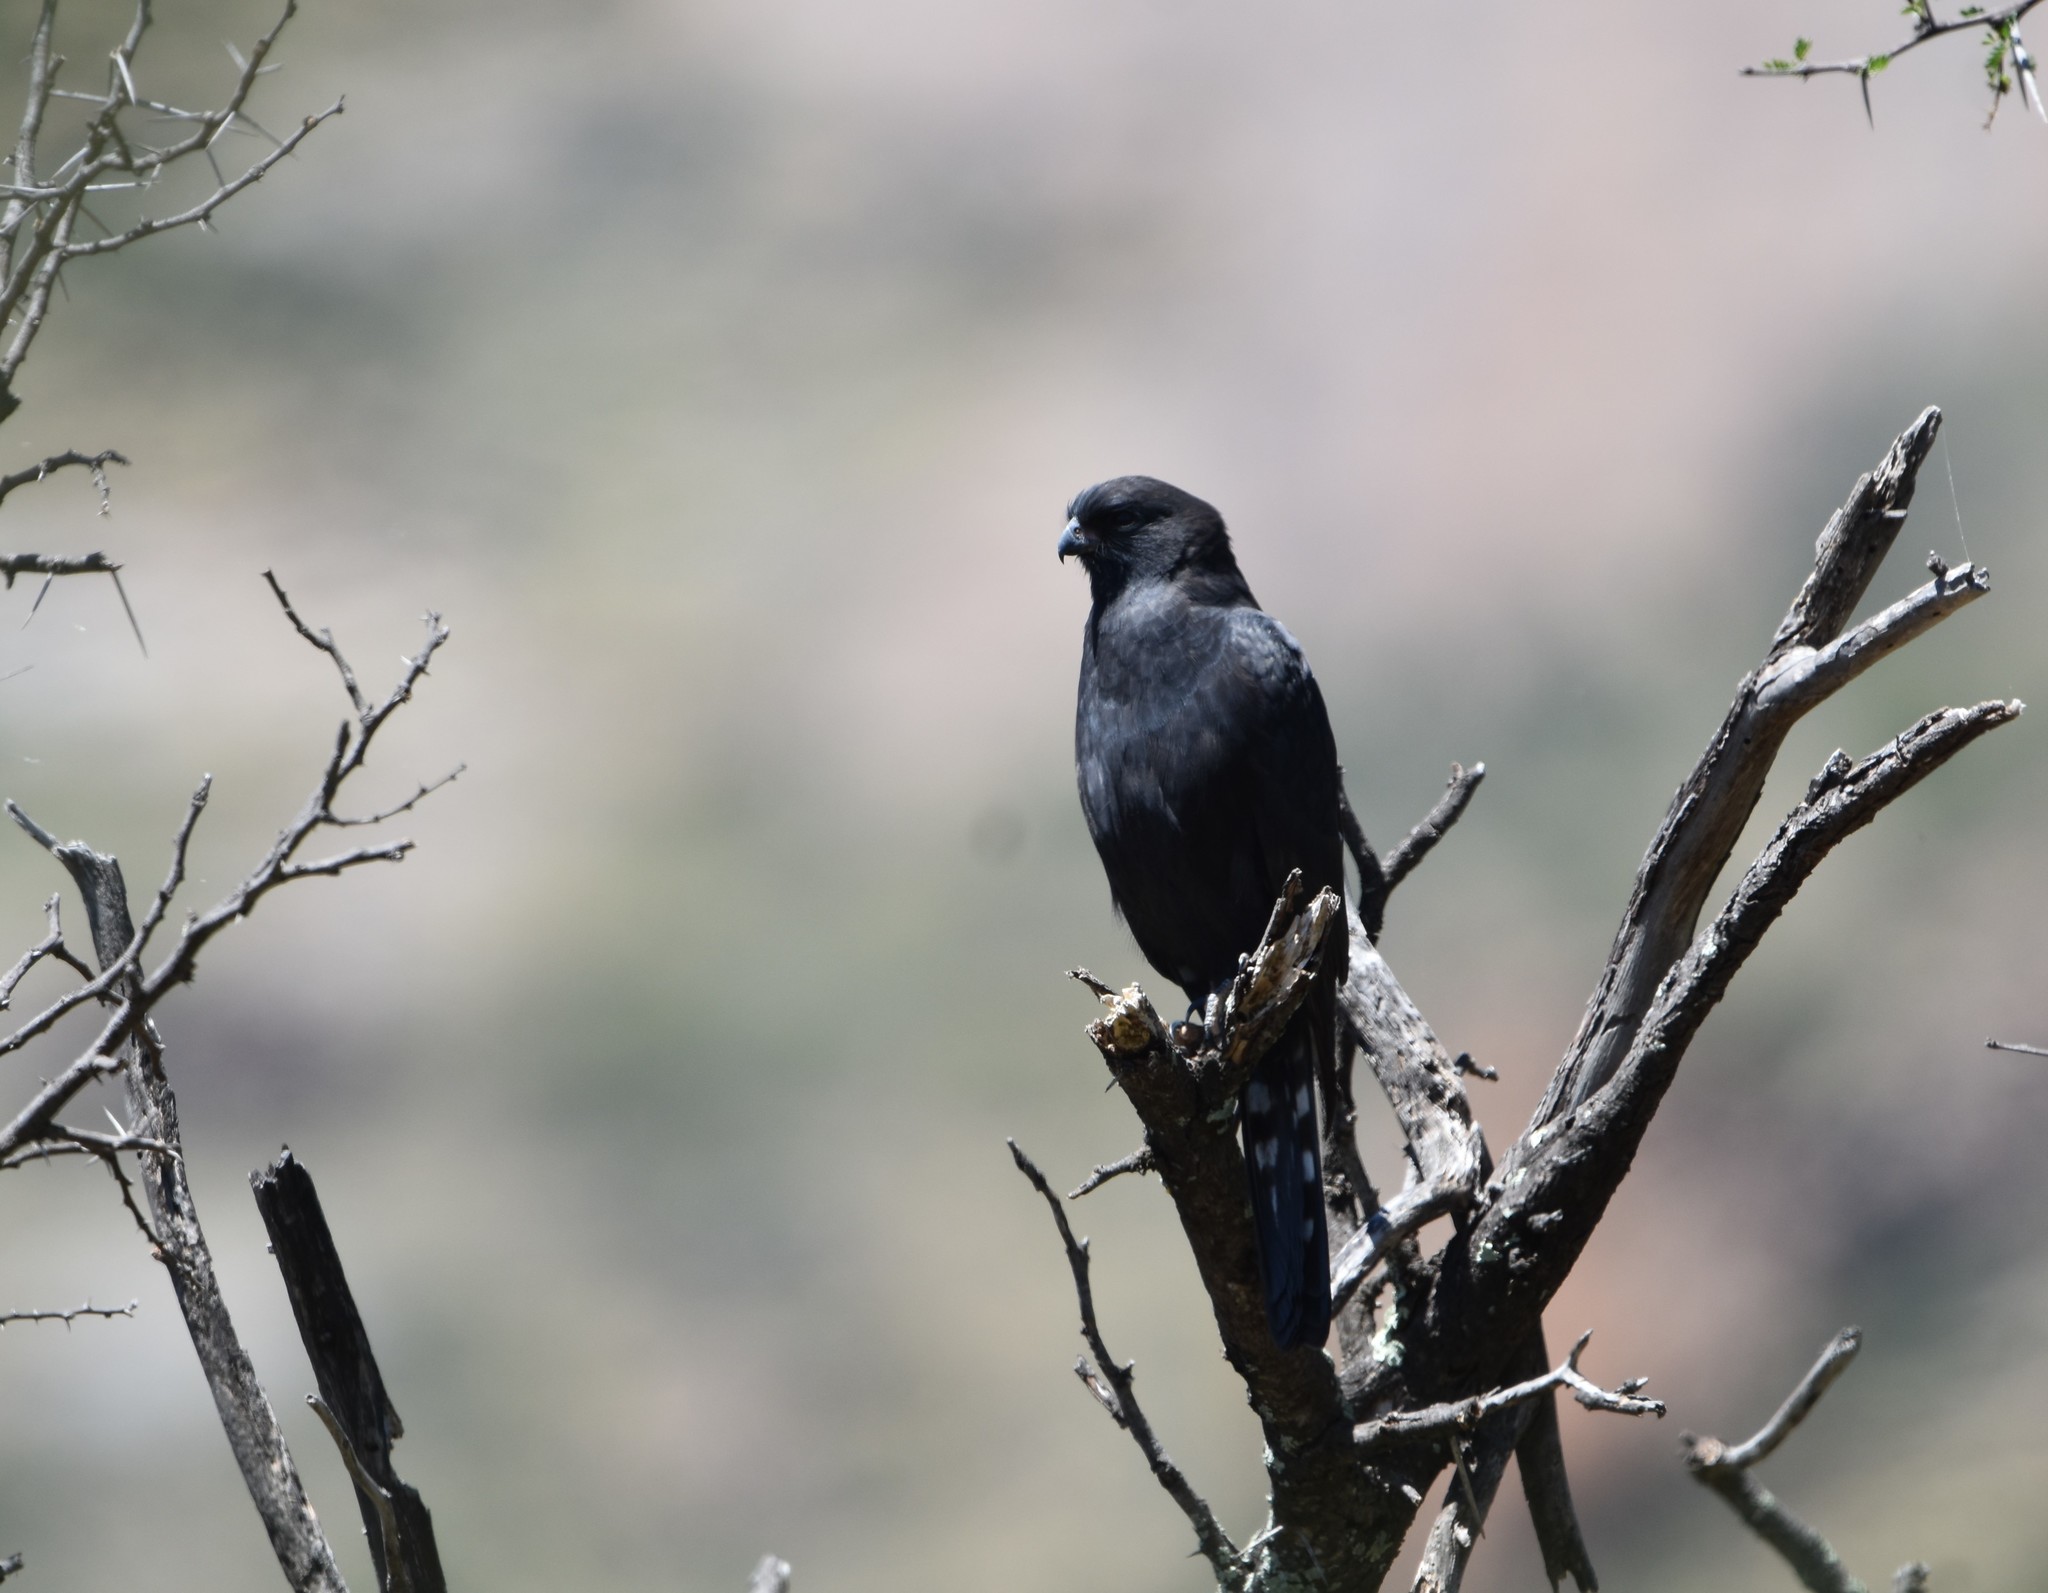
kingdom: Animalia
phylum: Chordata
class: Aves
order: Accipitriformes
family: Accipitridae
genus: Micronisus
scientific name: Micronisus gabar
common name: Gabar goshawk
